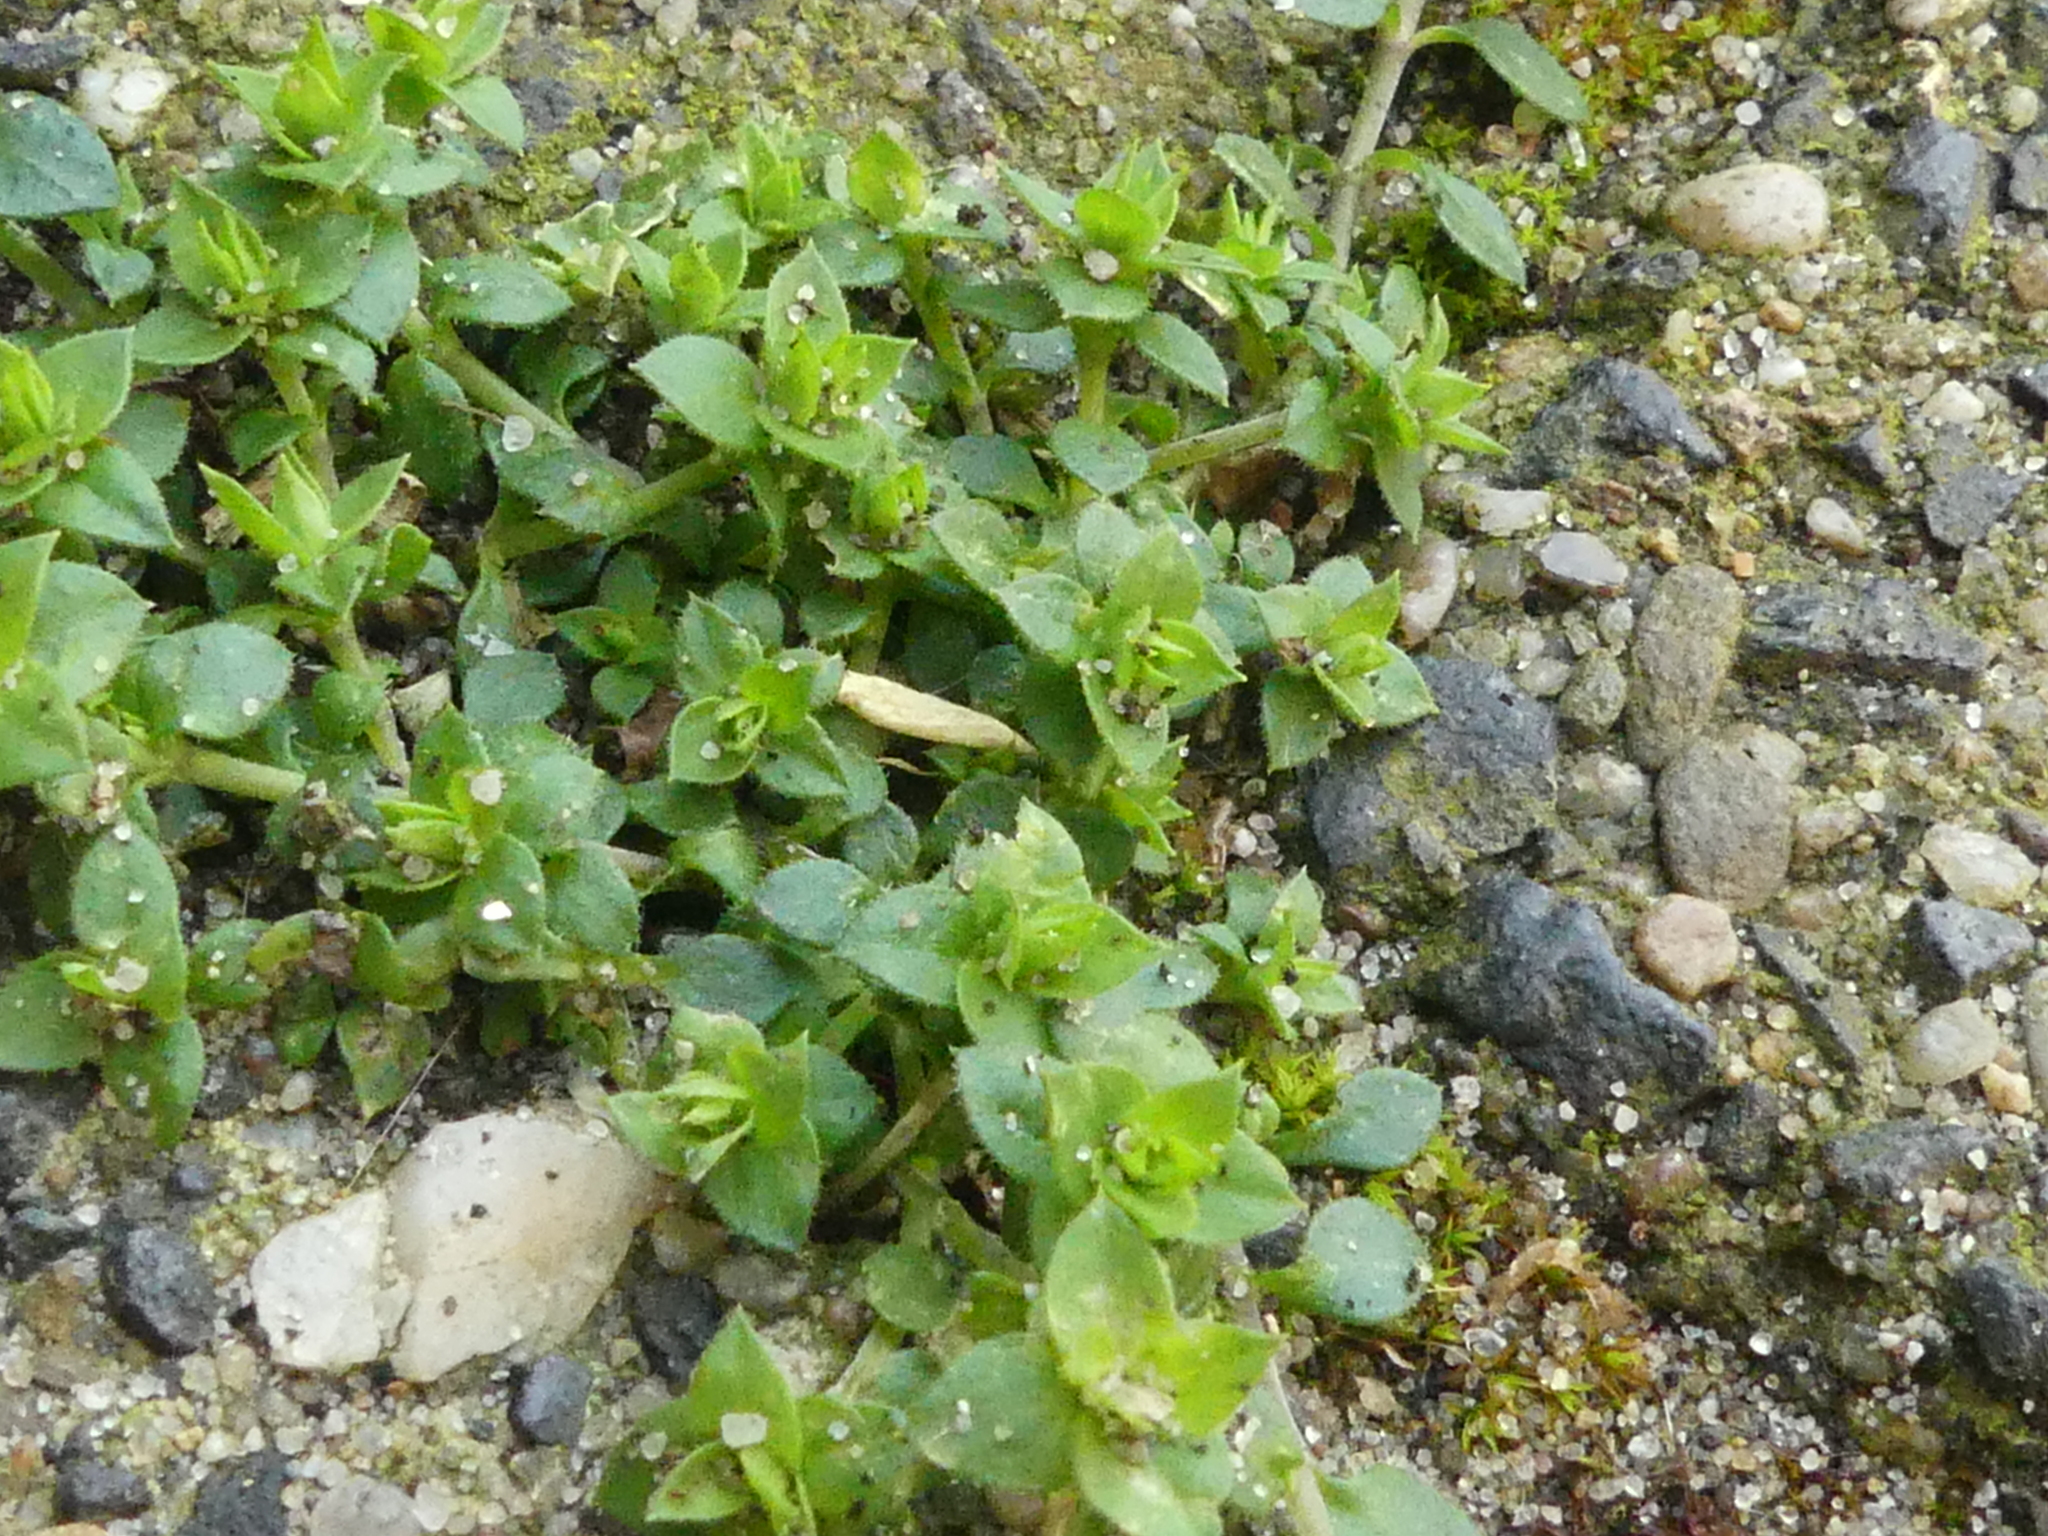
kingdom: Plantae
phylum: Tracheophyta
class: Magnoliopsida
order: Caryophyllales
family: Caryophyllaceae
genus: Arenaria
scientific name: Arenaria serpyllifolia
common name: Thyme-leaved sandwort
